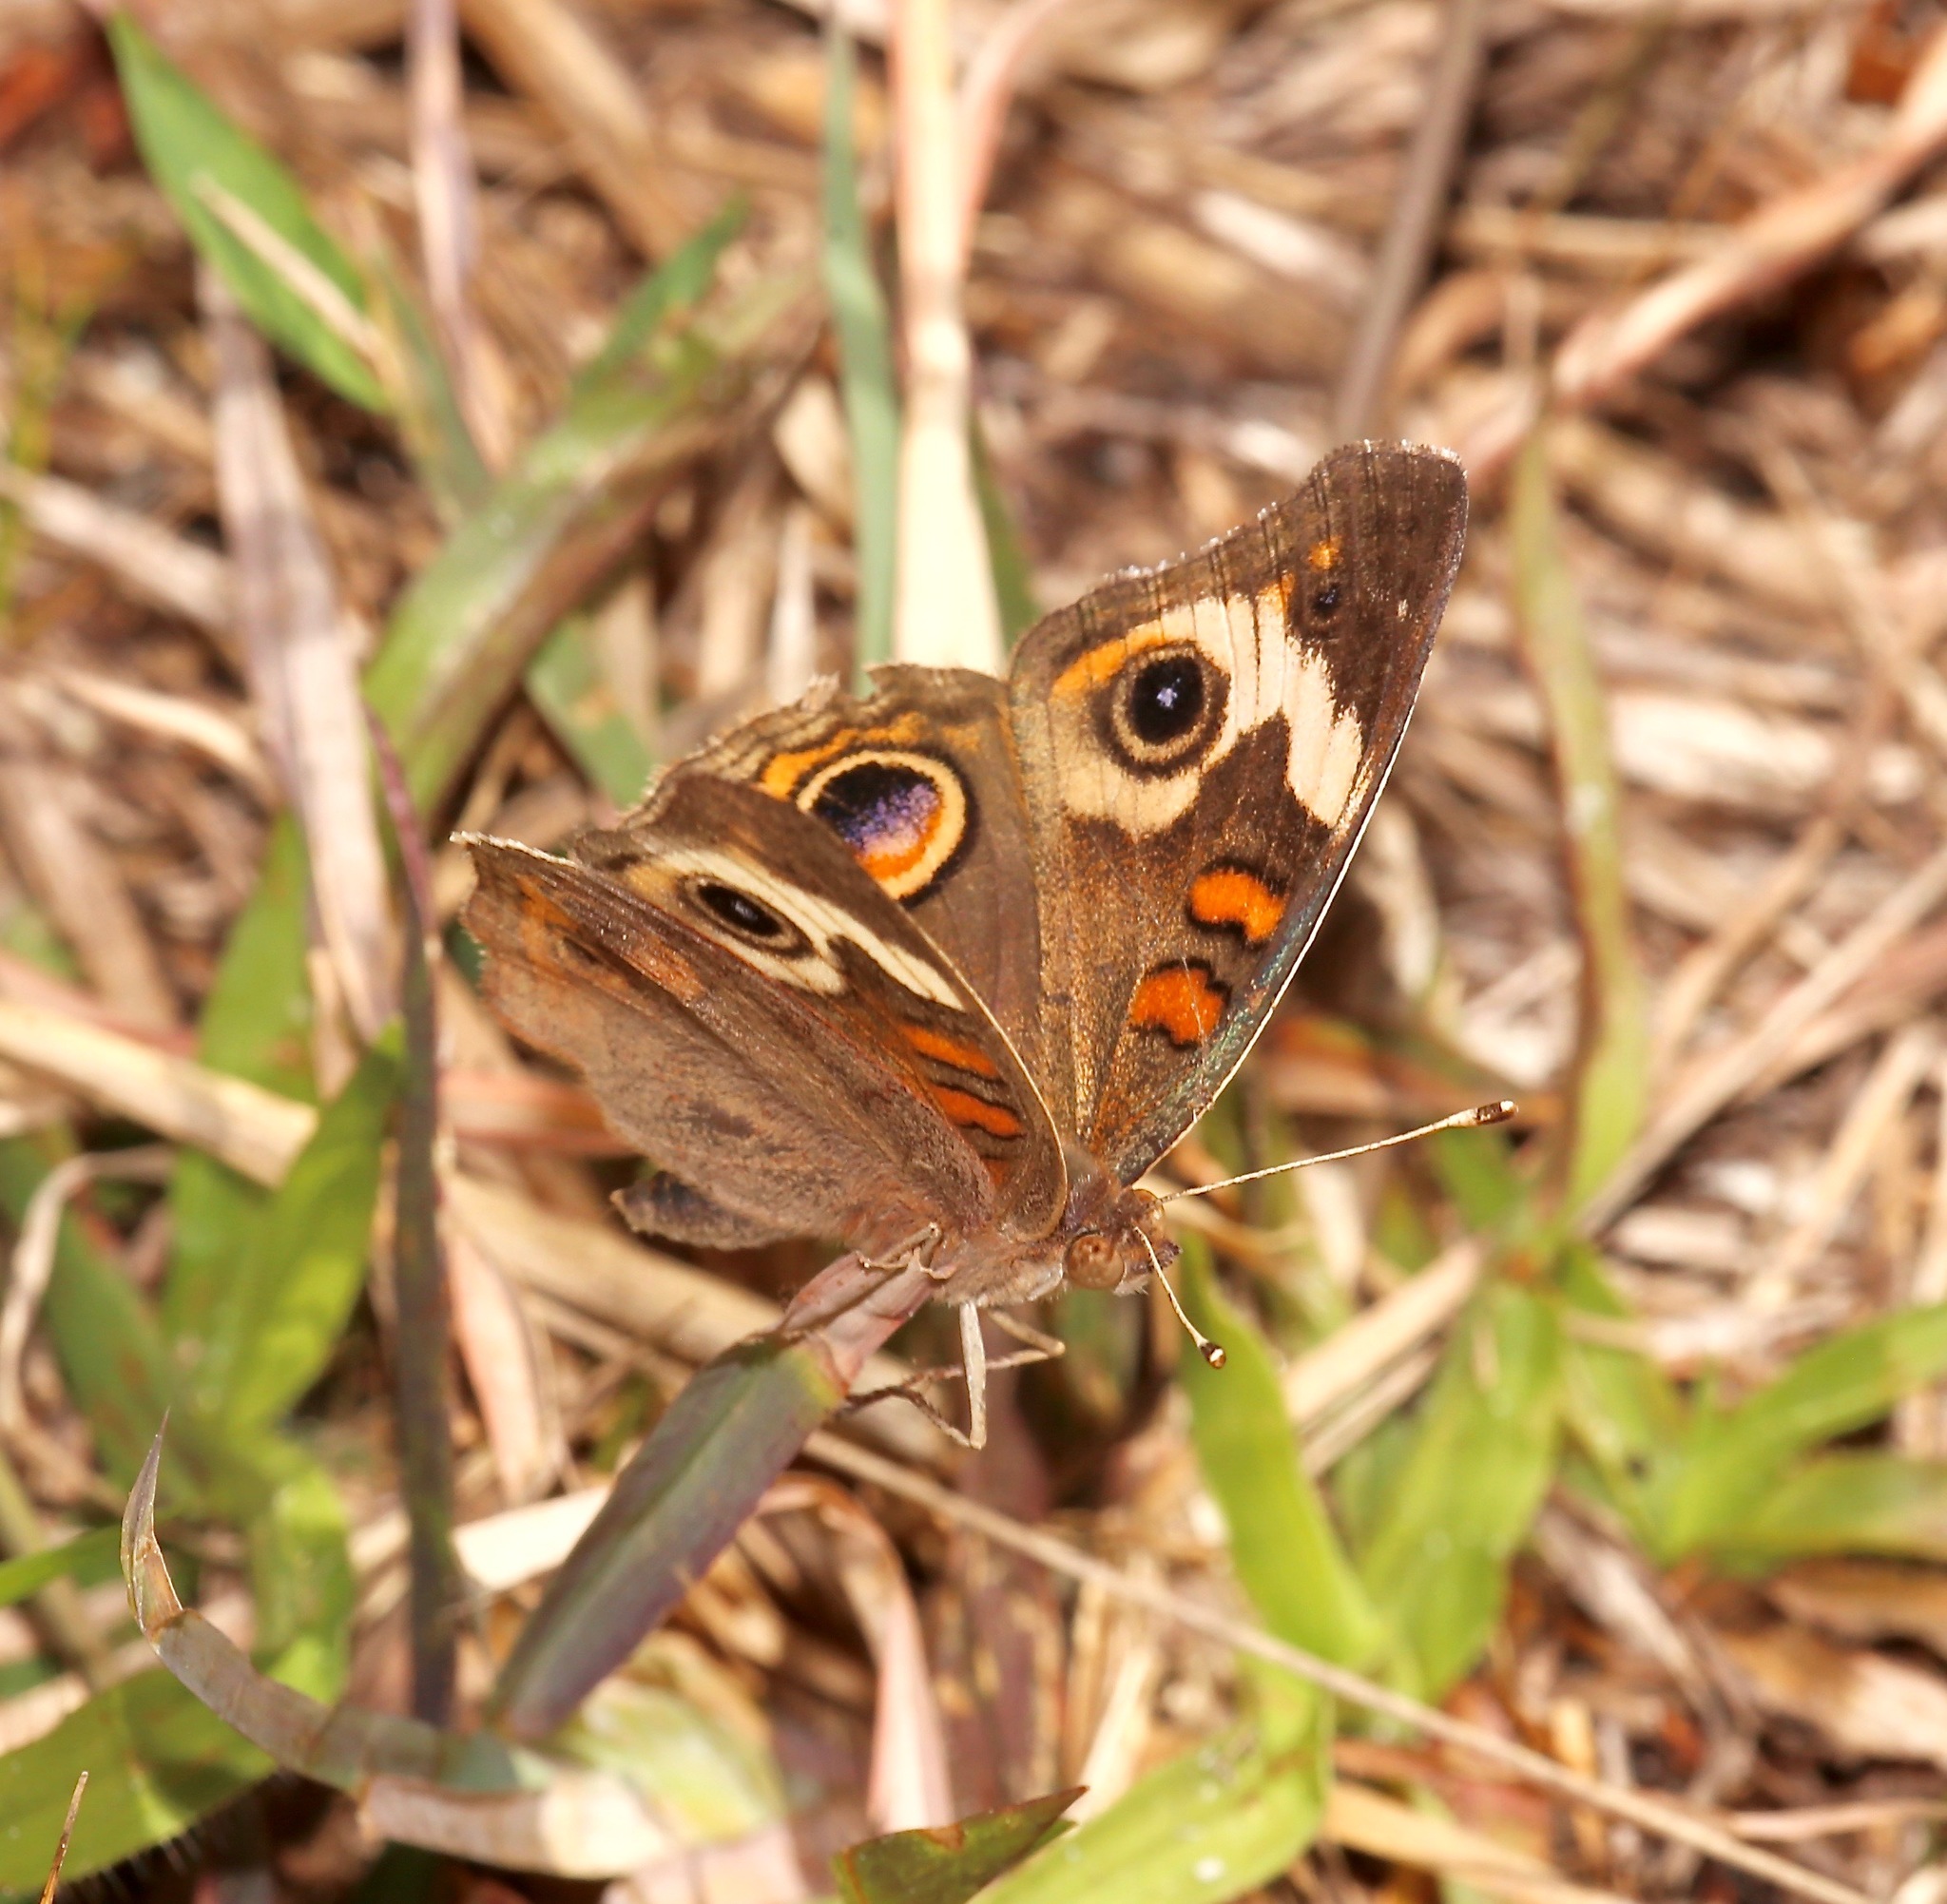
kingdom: Animalia
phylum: Arthropoda
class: Insecta
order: Lepidoptera
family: Nymphalidae
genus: Junonia
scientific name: Junonia coenia
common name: Common buckeye
